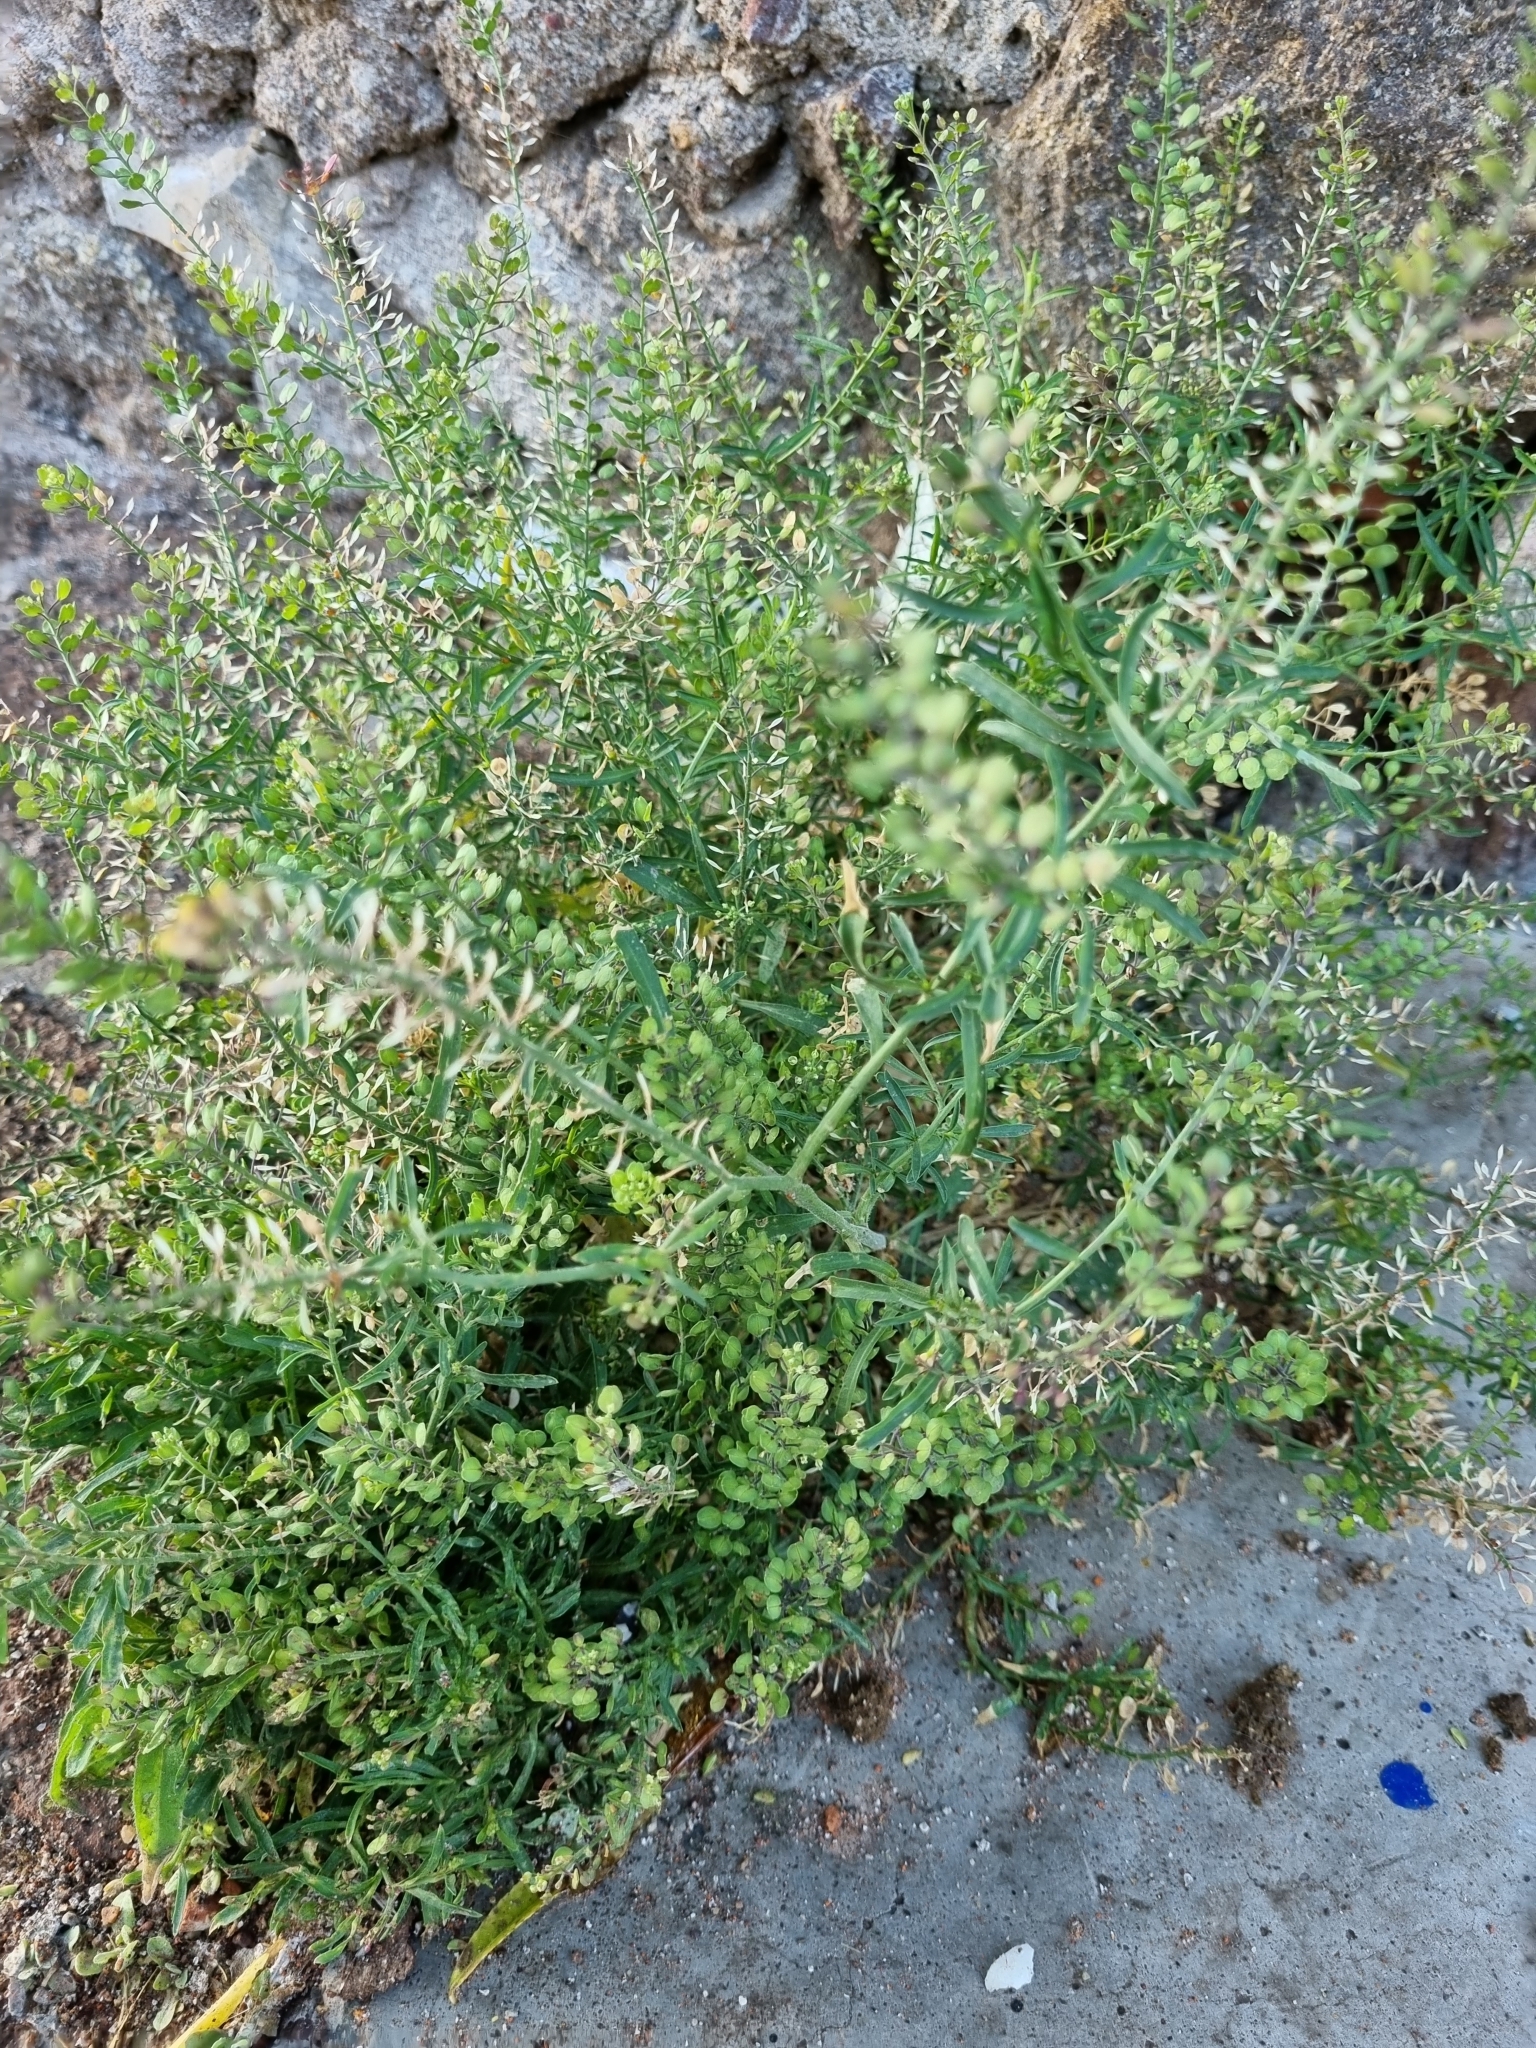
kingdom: Plantae
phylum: Tracheophyta
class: Magnoliopsida
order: Brassicales
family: Brassicaceae
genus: Lepidium
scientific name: Lepidium virginicum
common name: Least pepperwort
